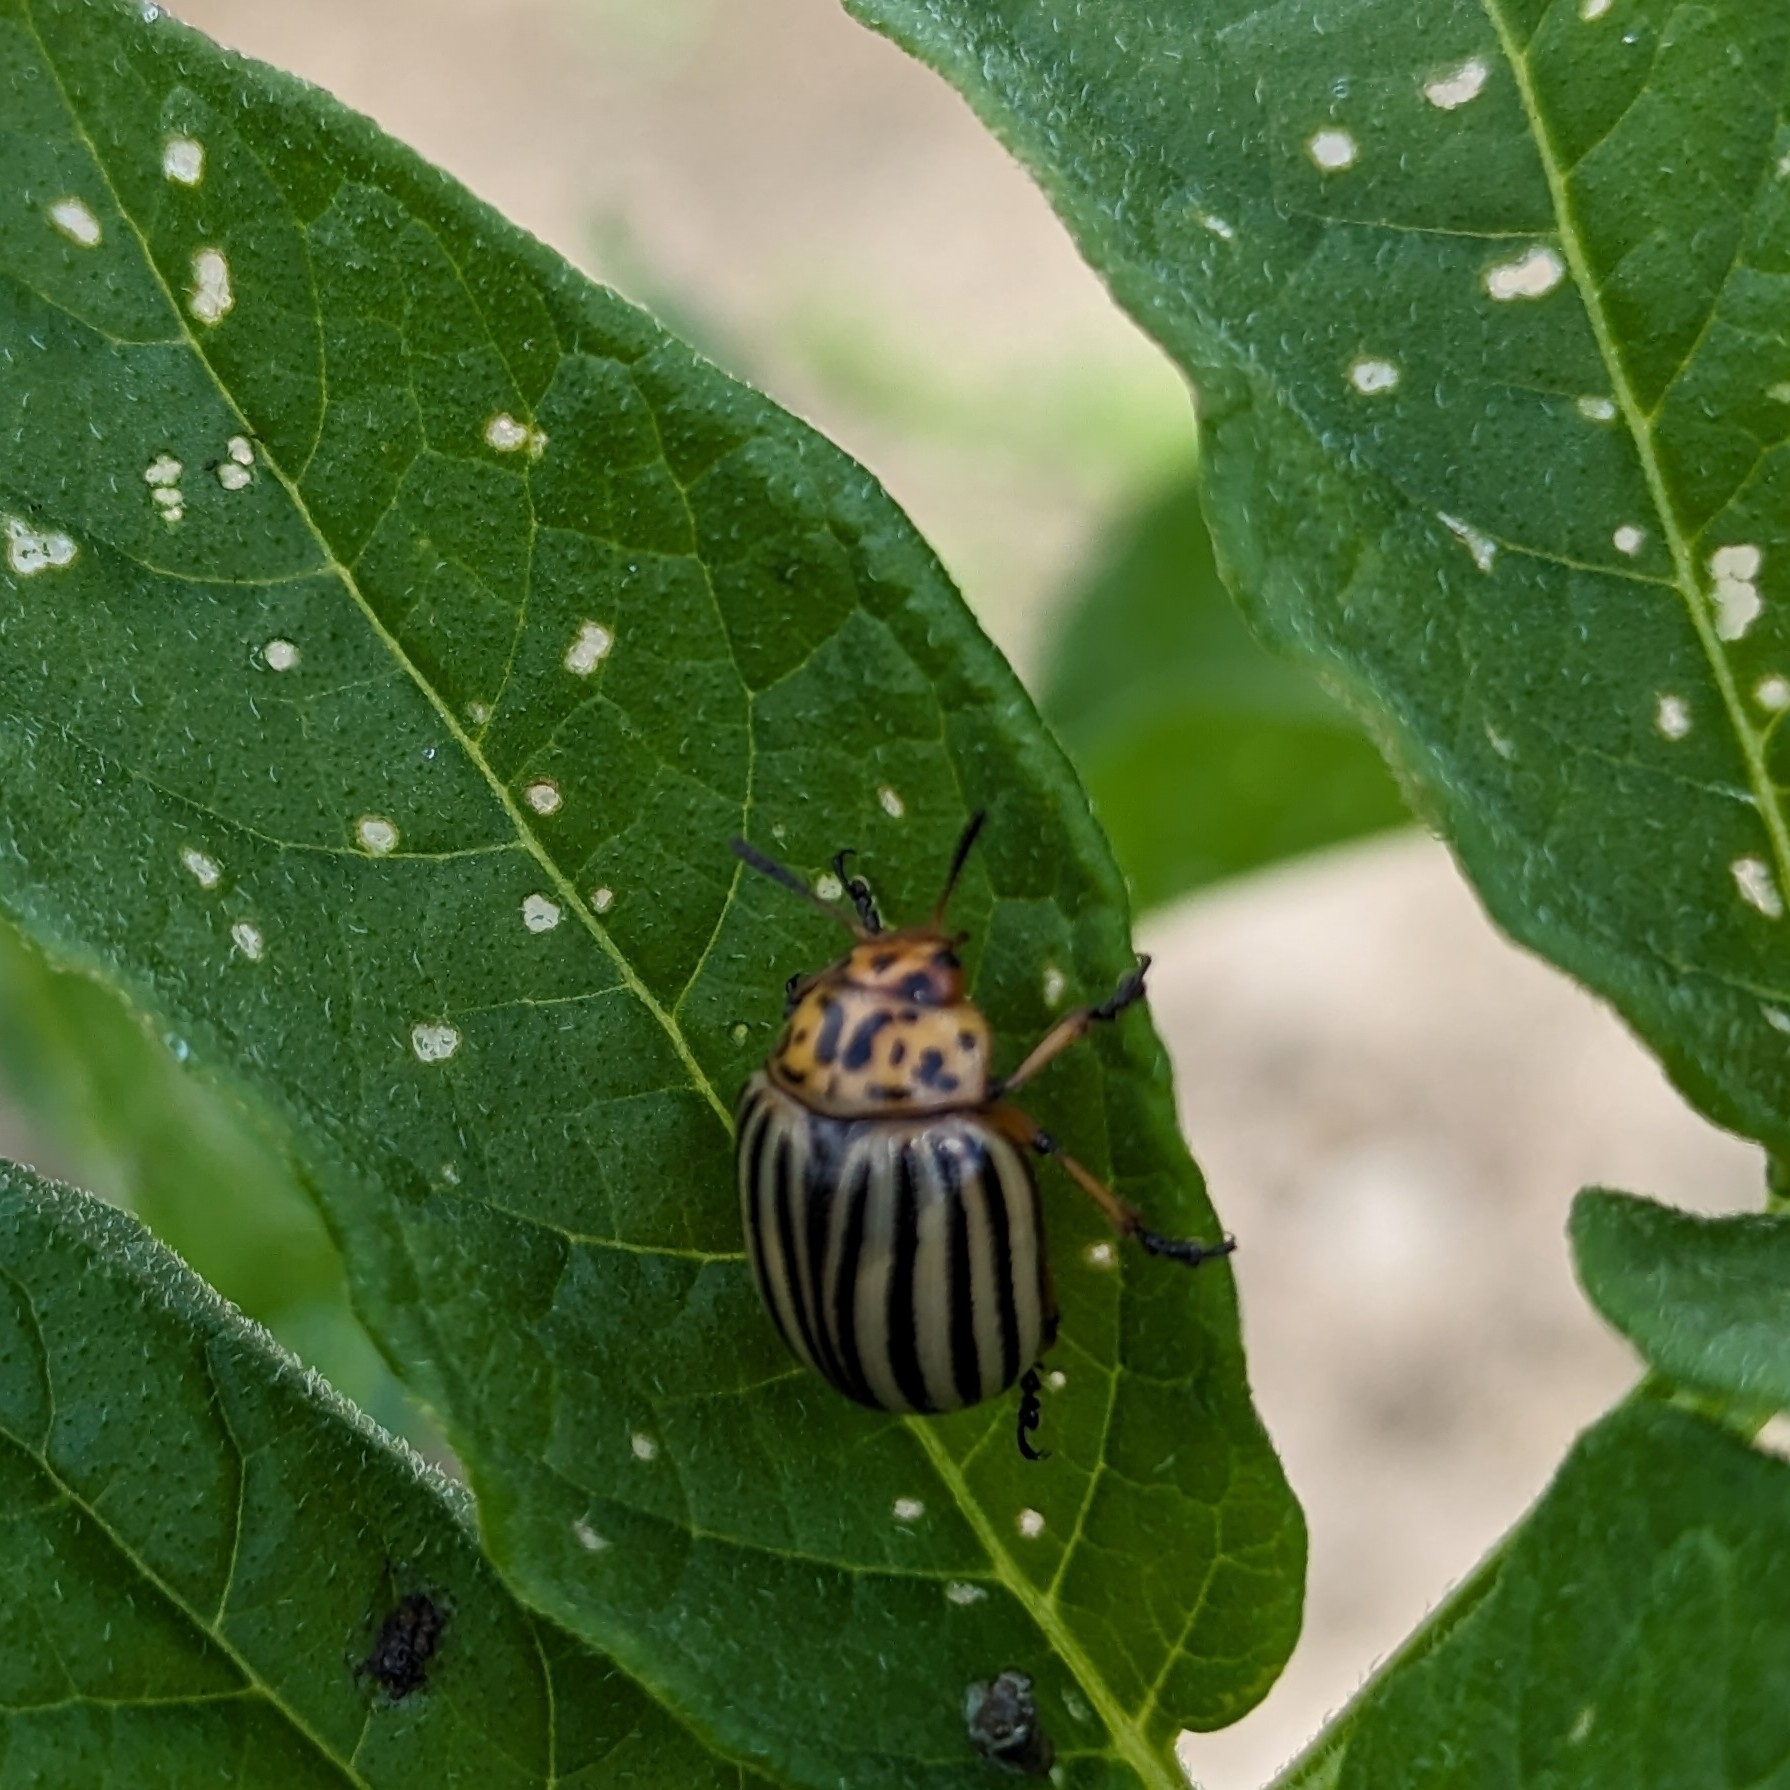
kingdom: Animalia
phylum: Arthropoda
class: Insecta
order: Coleoptera
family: Chrysomelidae
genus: Leptinotarsa
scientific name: Leptinotarsa decemlineata
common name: Colorado potato beetle
